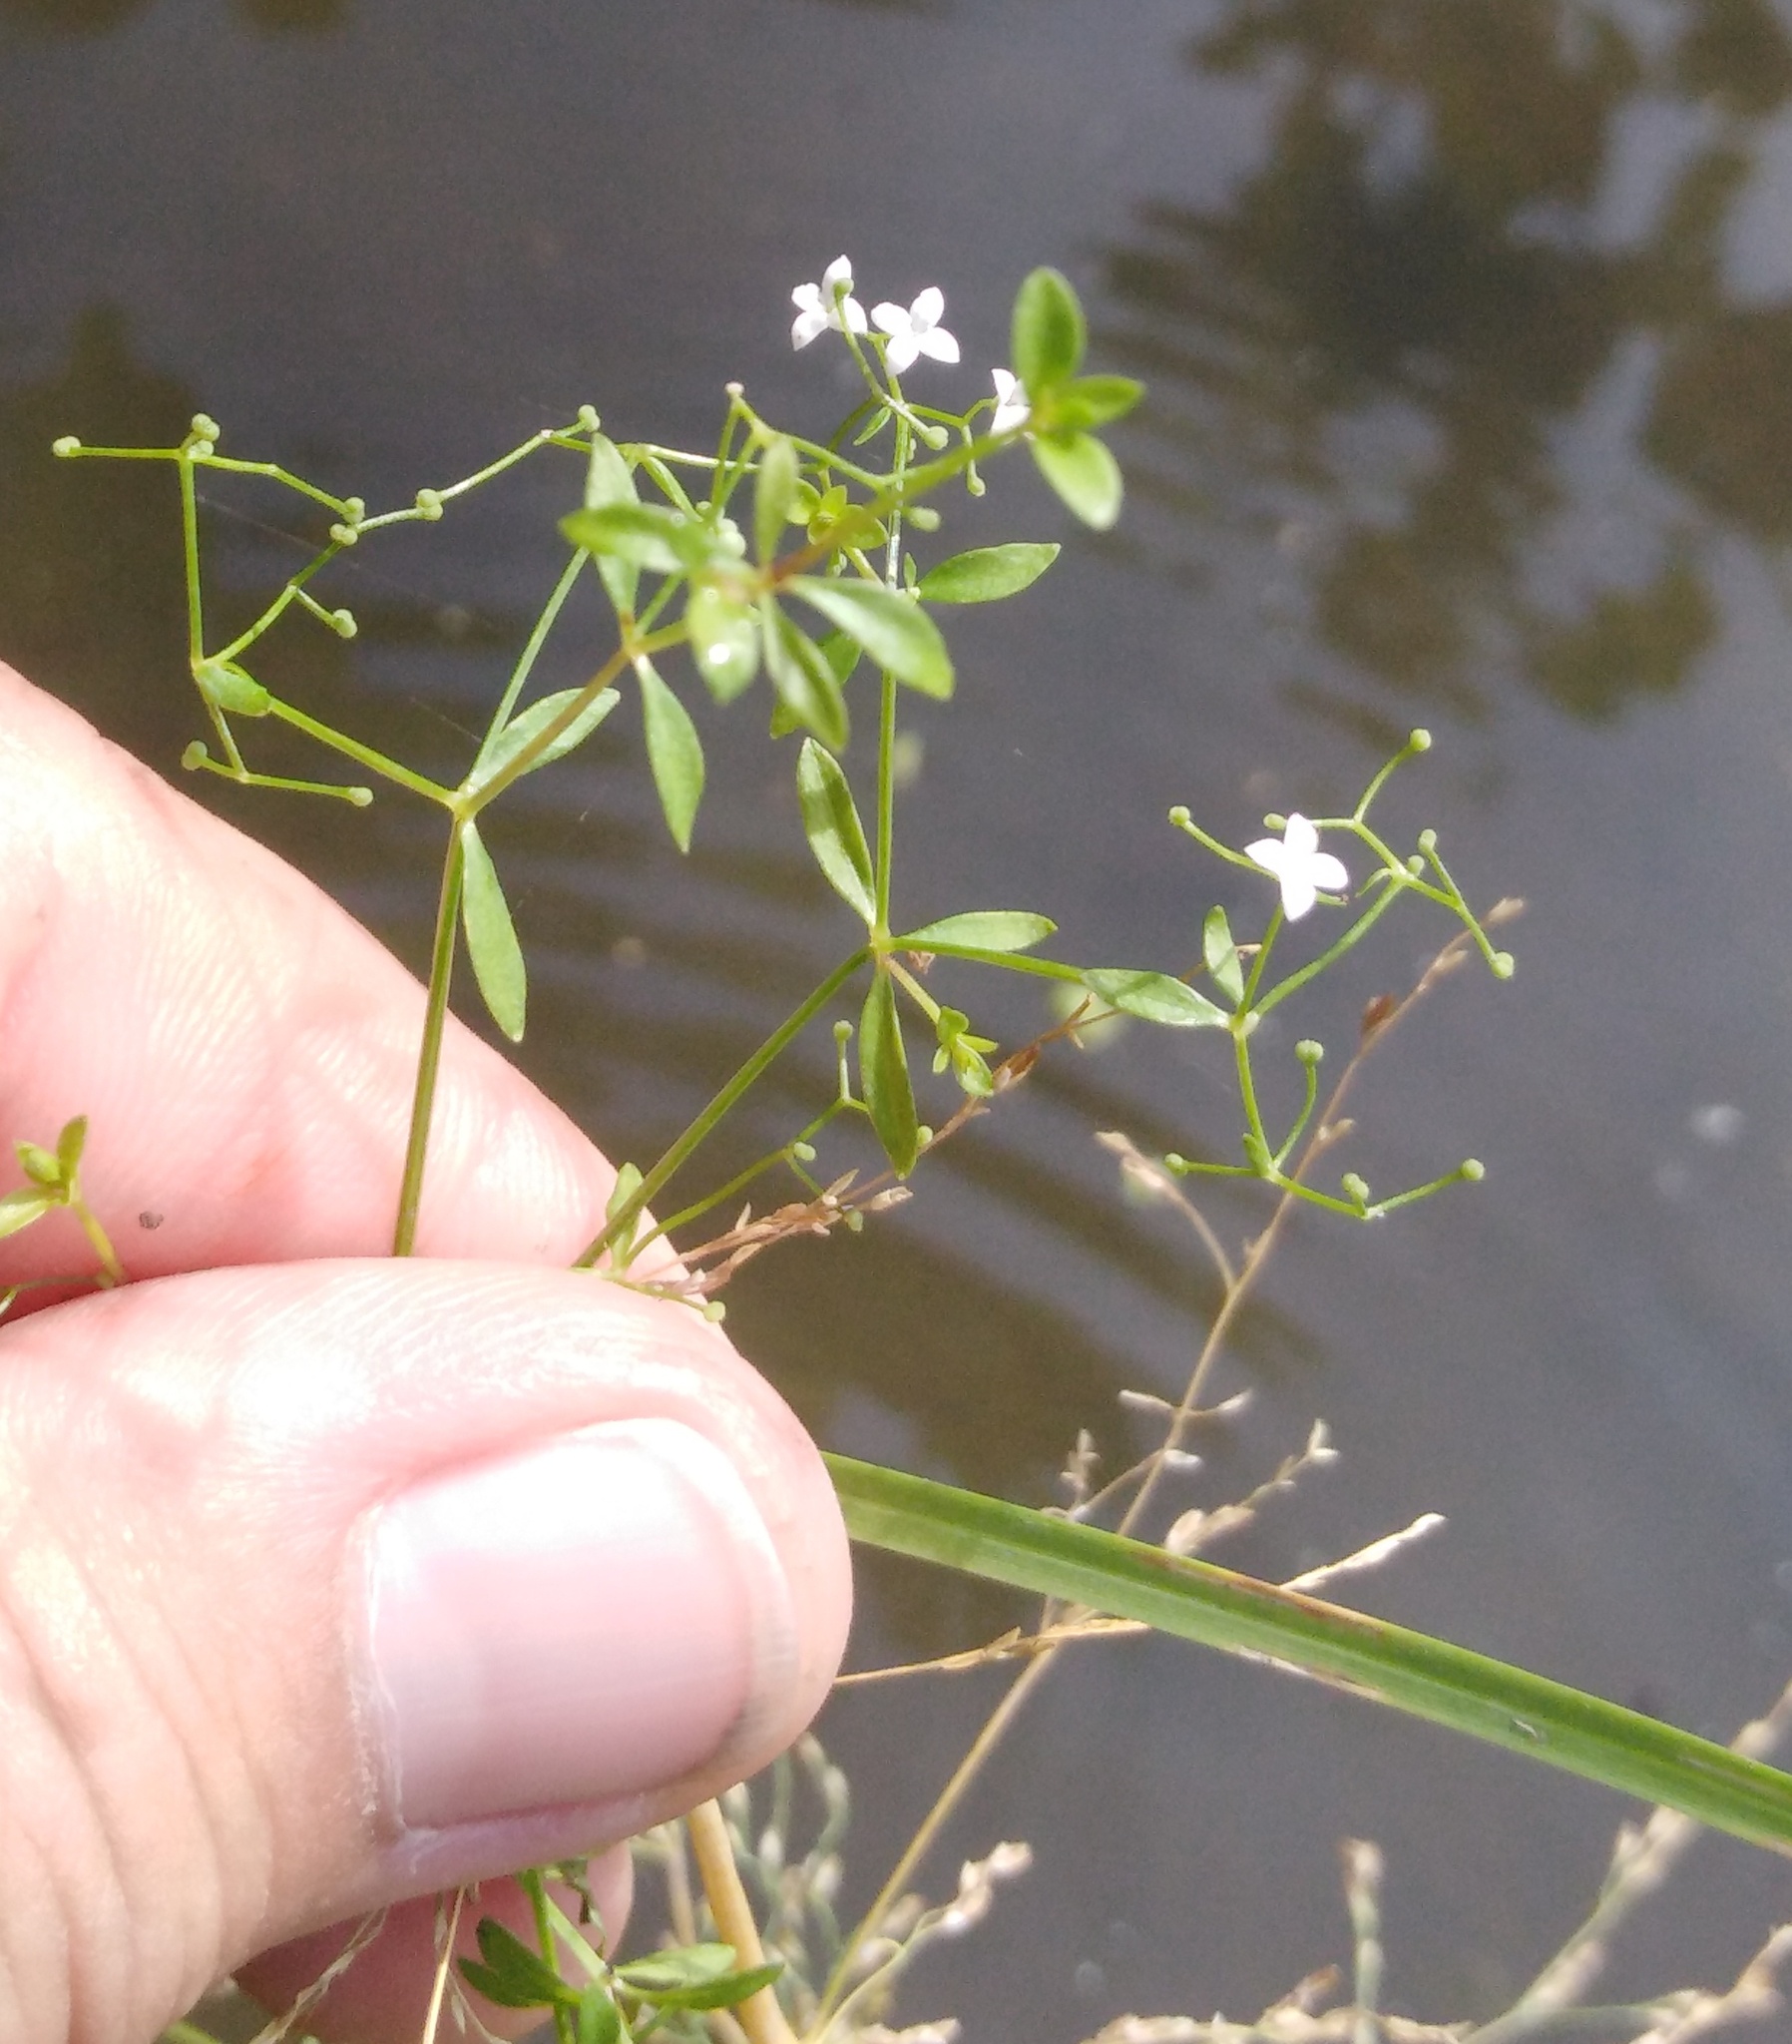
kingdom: Plantae
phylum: Tracheophyta
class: Magnoliopsida
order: Gentianales
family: Rubiaceae
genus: Galium
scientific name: Galium palustre
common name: Common marsh-bedstraw
